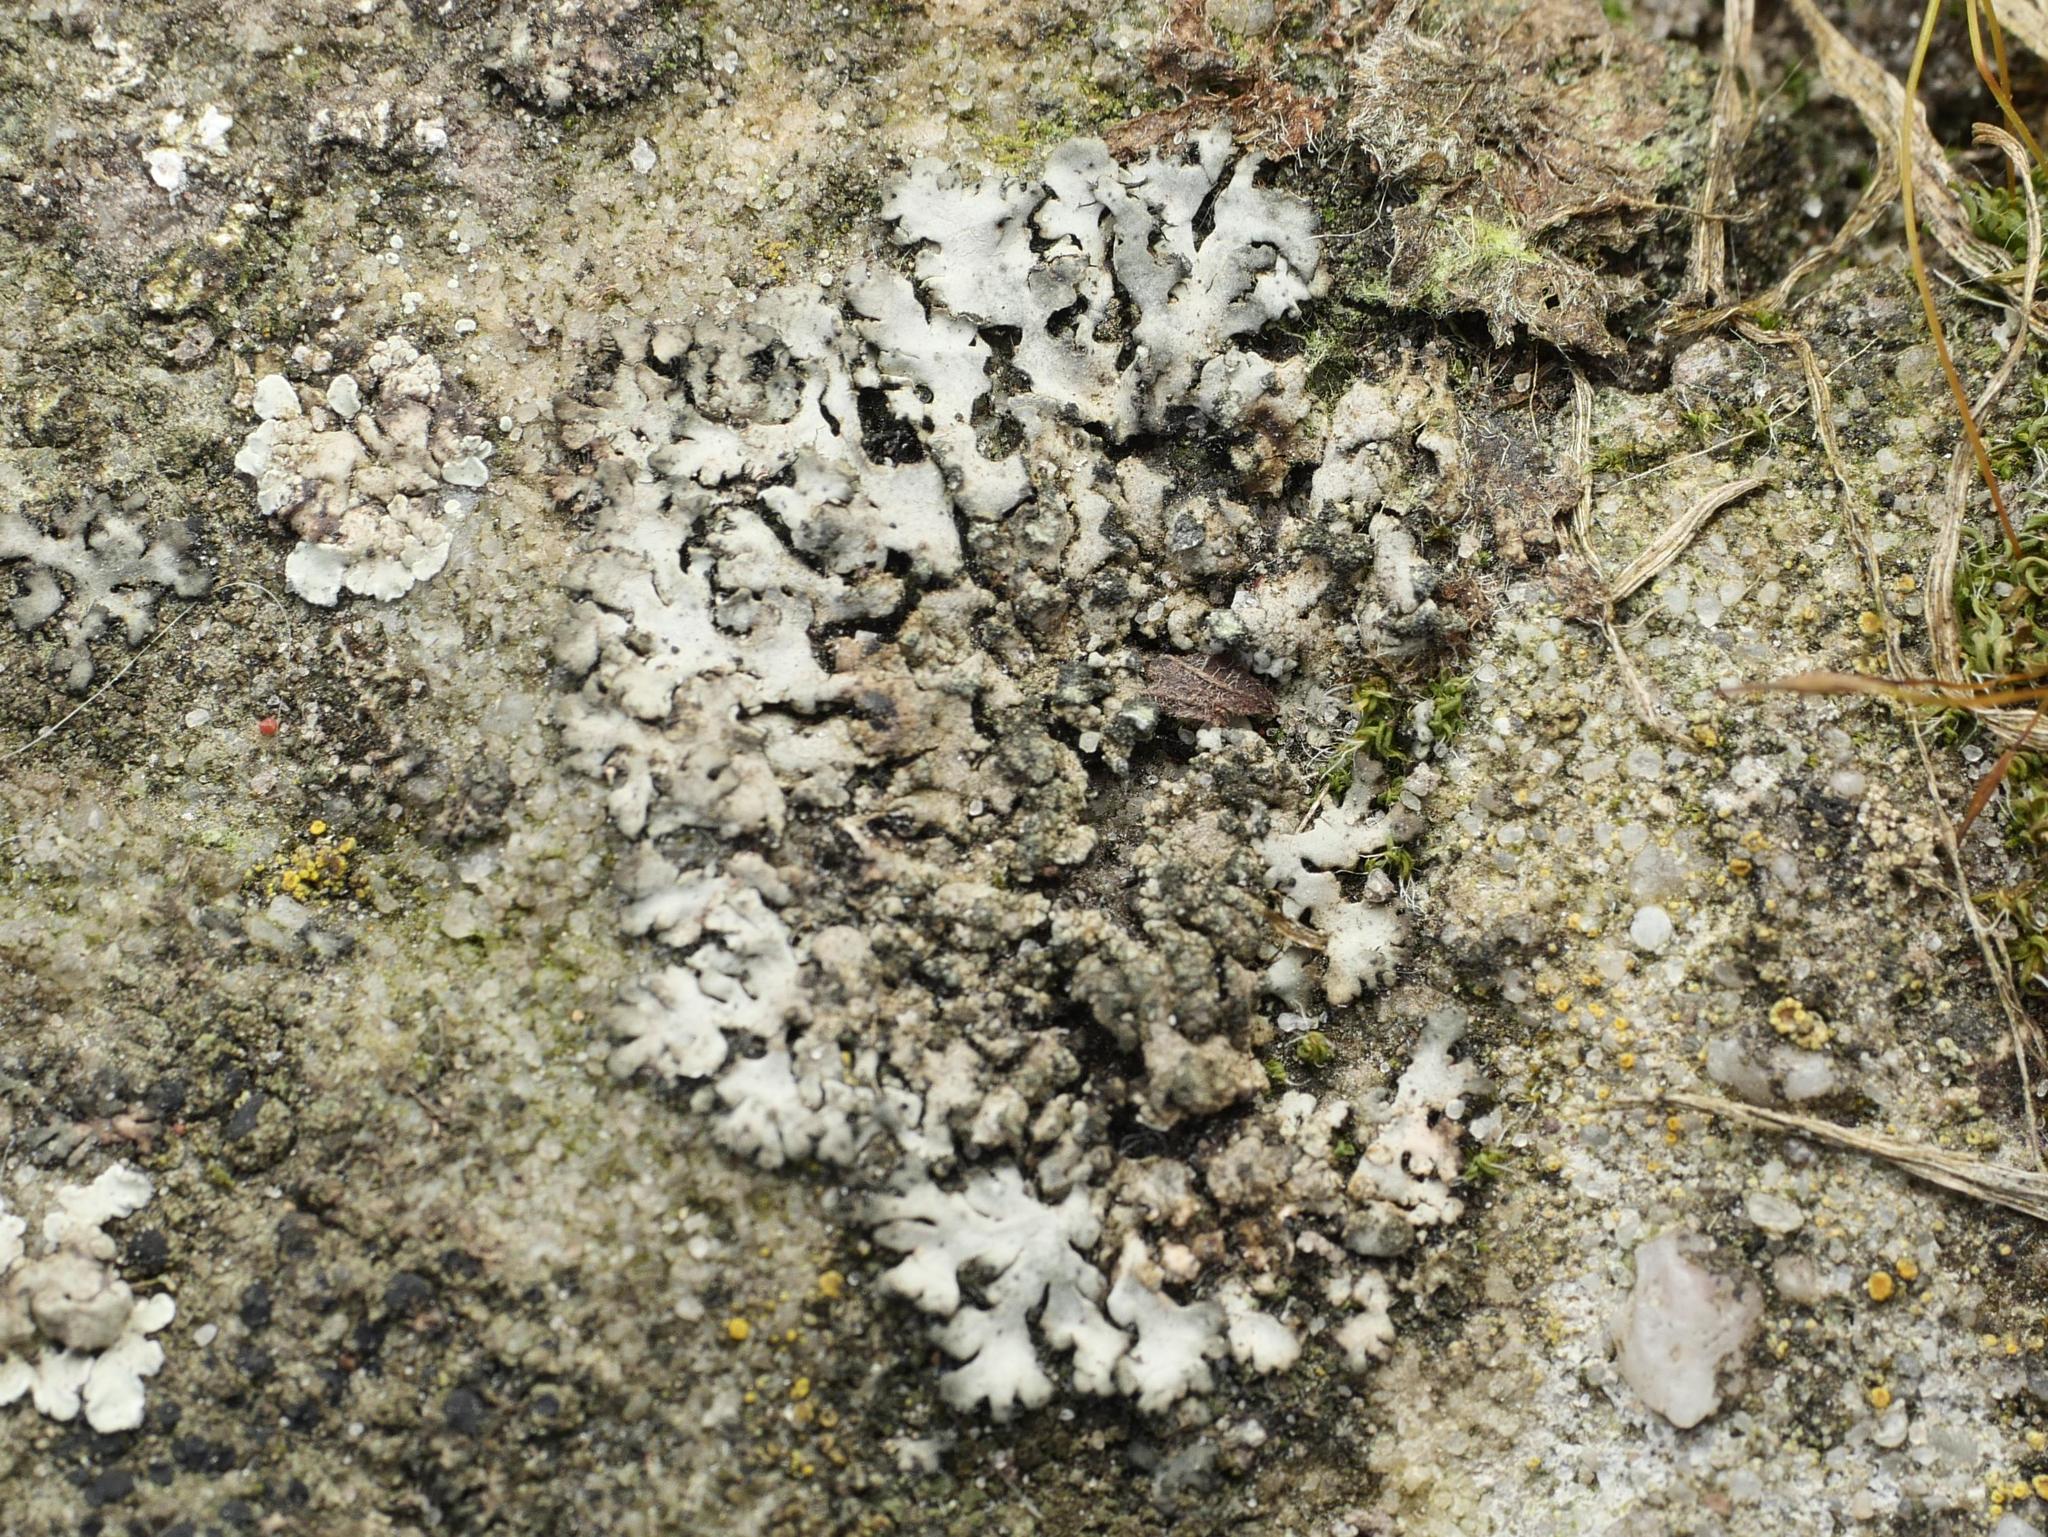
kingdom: Fungi
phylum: Ascomycota
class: Lecanoromycetes
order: Caliciales
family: Physciaceae
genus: Phaeophyscia
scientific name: Phaeophyscia orbicularis
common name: Mealy shadow lichen
